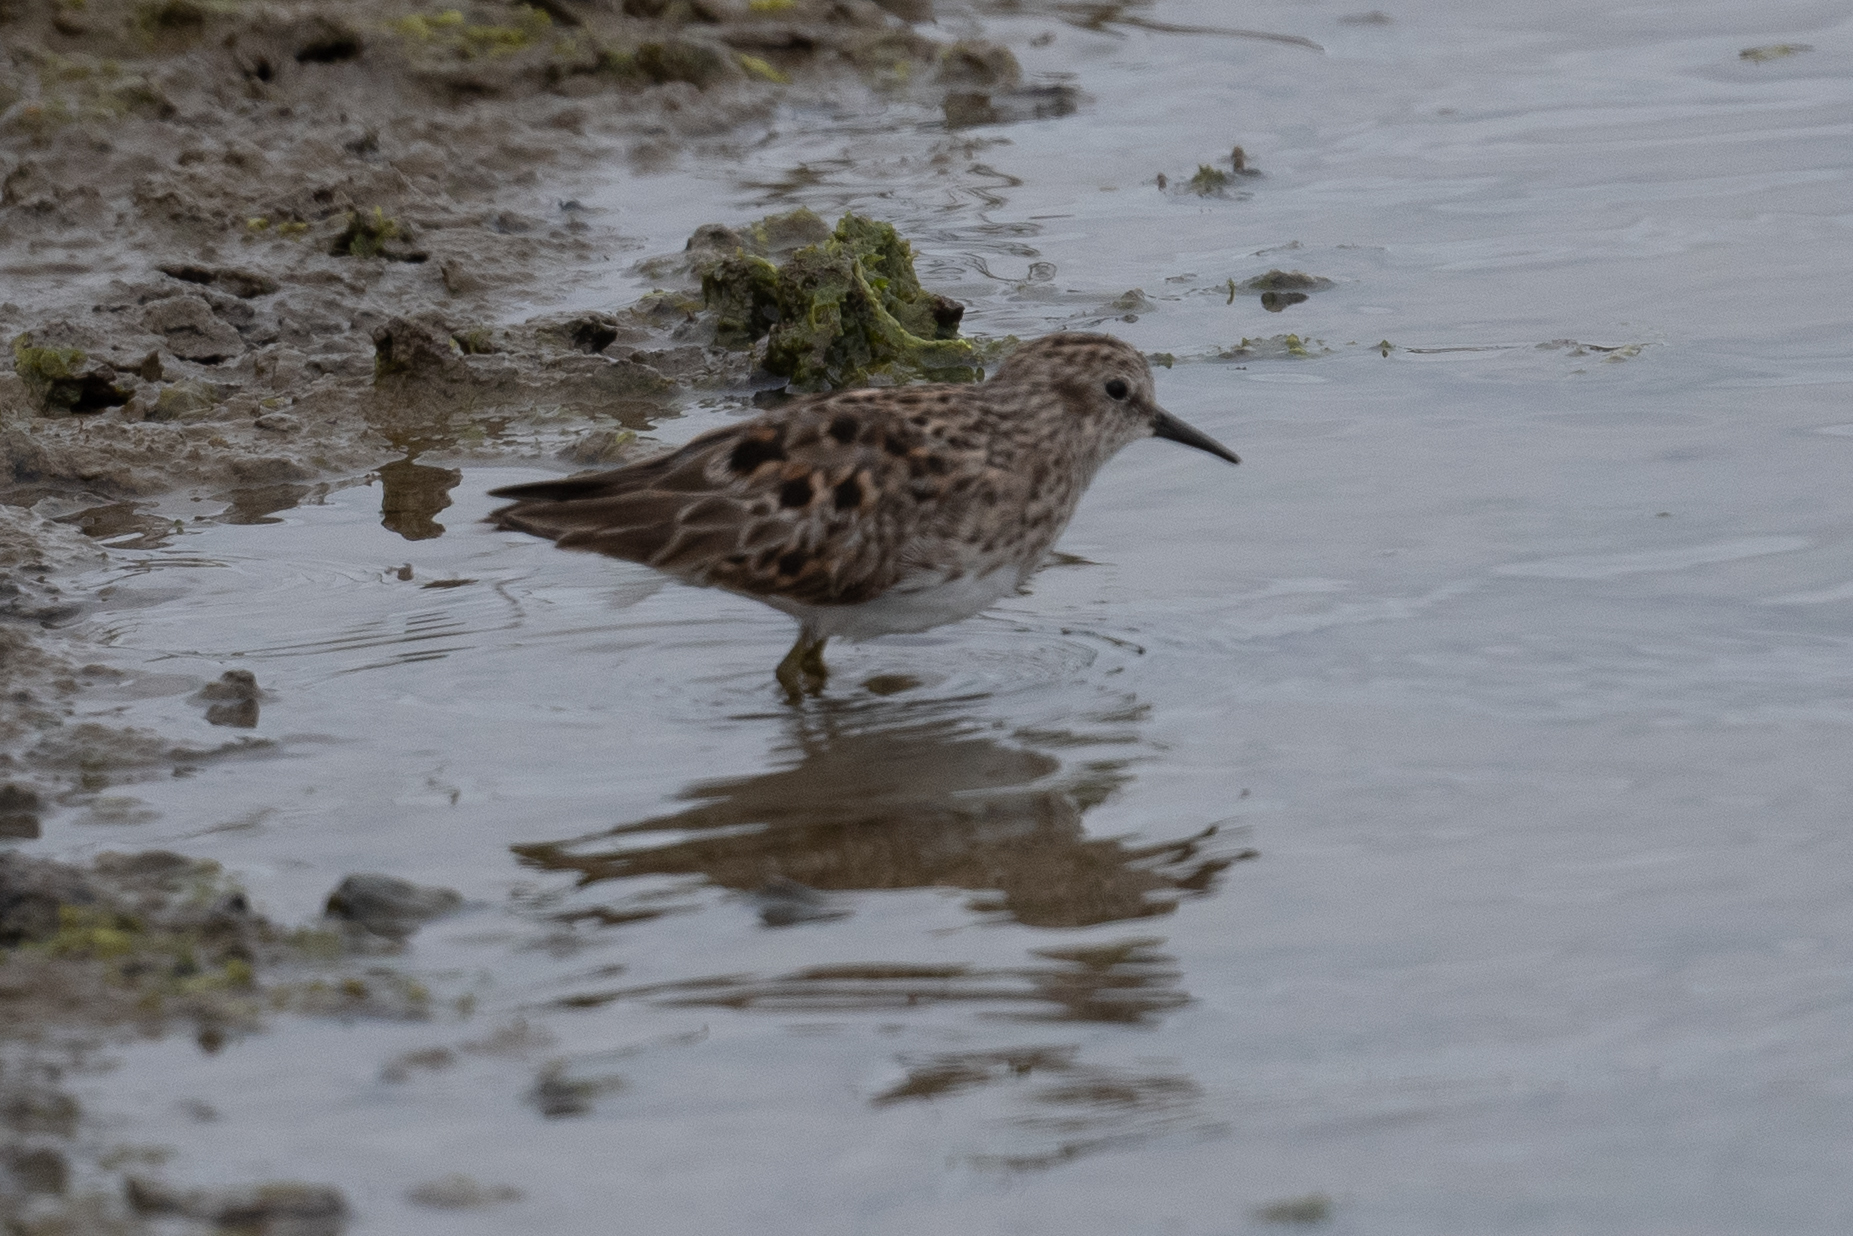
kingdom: Animalia
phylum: Chordata
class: Aves
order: Charadriiformes
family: Scolopacidae
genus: Calidris
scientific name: Calidris minutilla
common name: Least sandpiper
